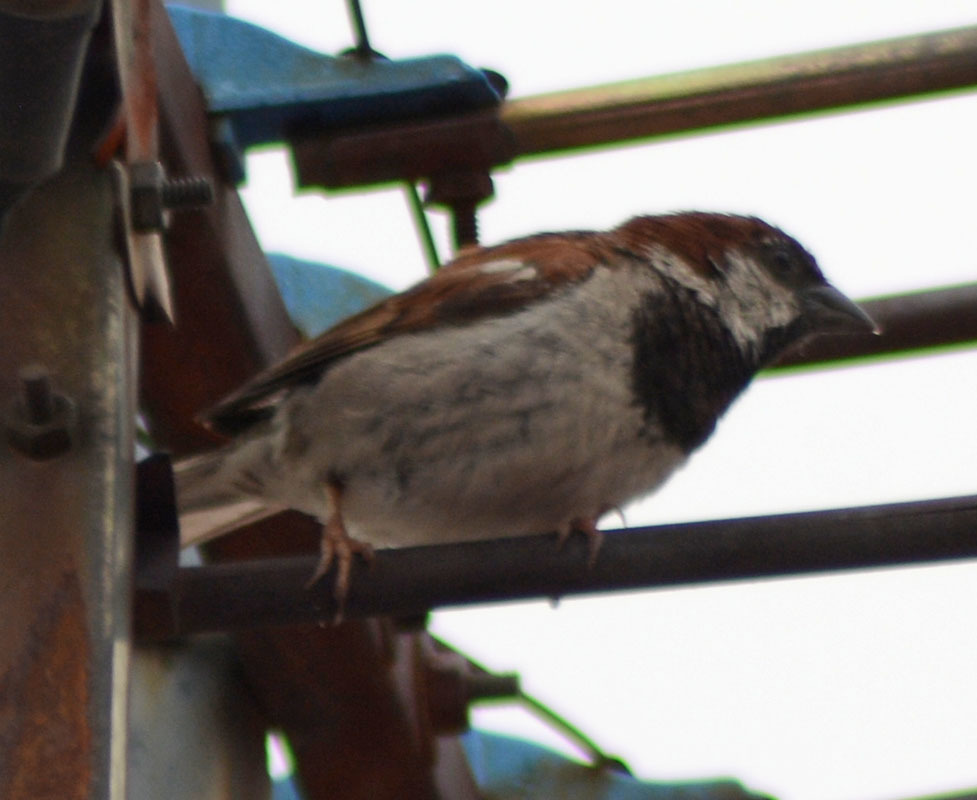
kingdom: Animalia
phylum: Chordata
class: Aves
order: Passeriformes
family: Passeridae
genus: Passer
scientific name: Passer domesticus
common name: House sparrow
